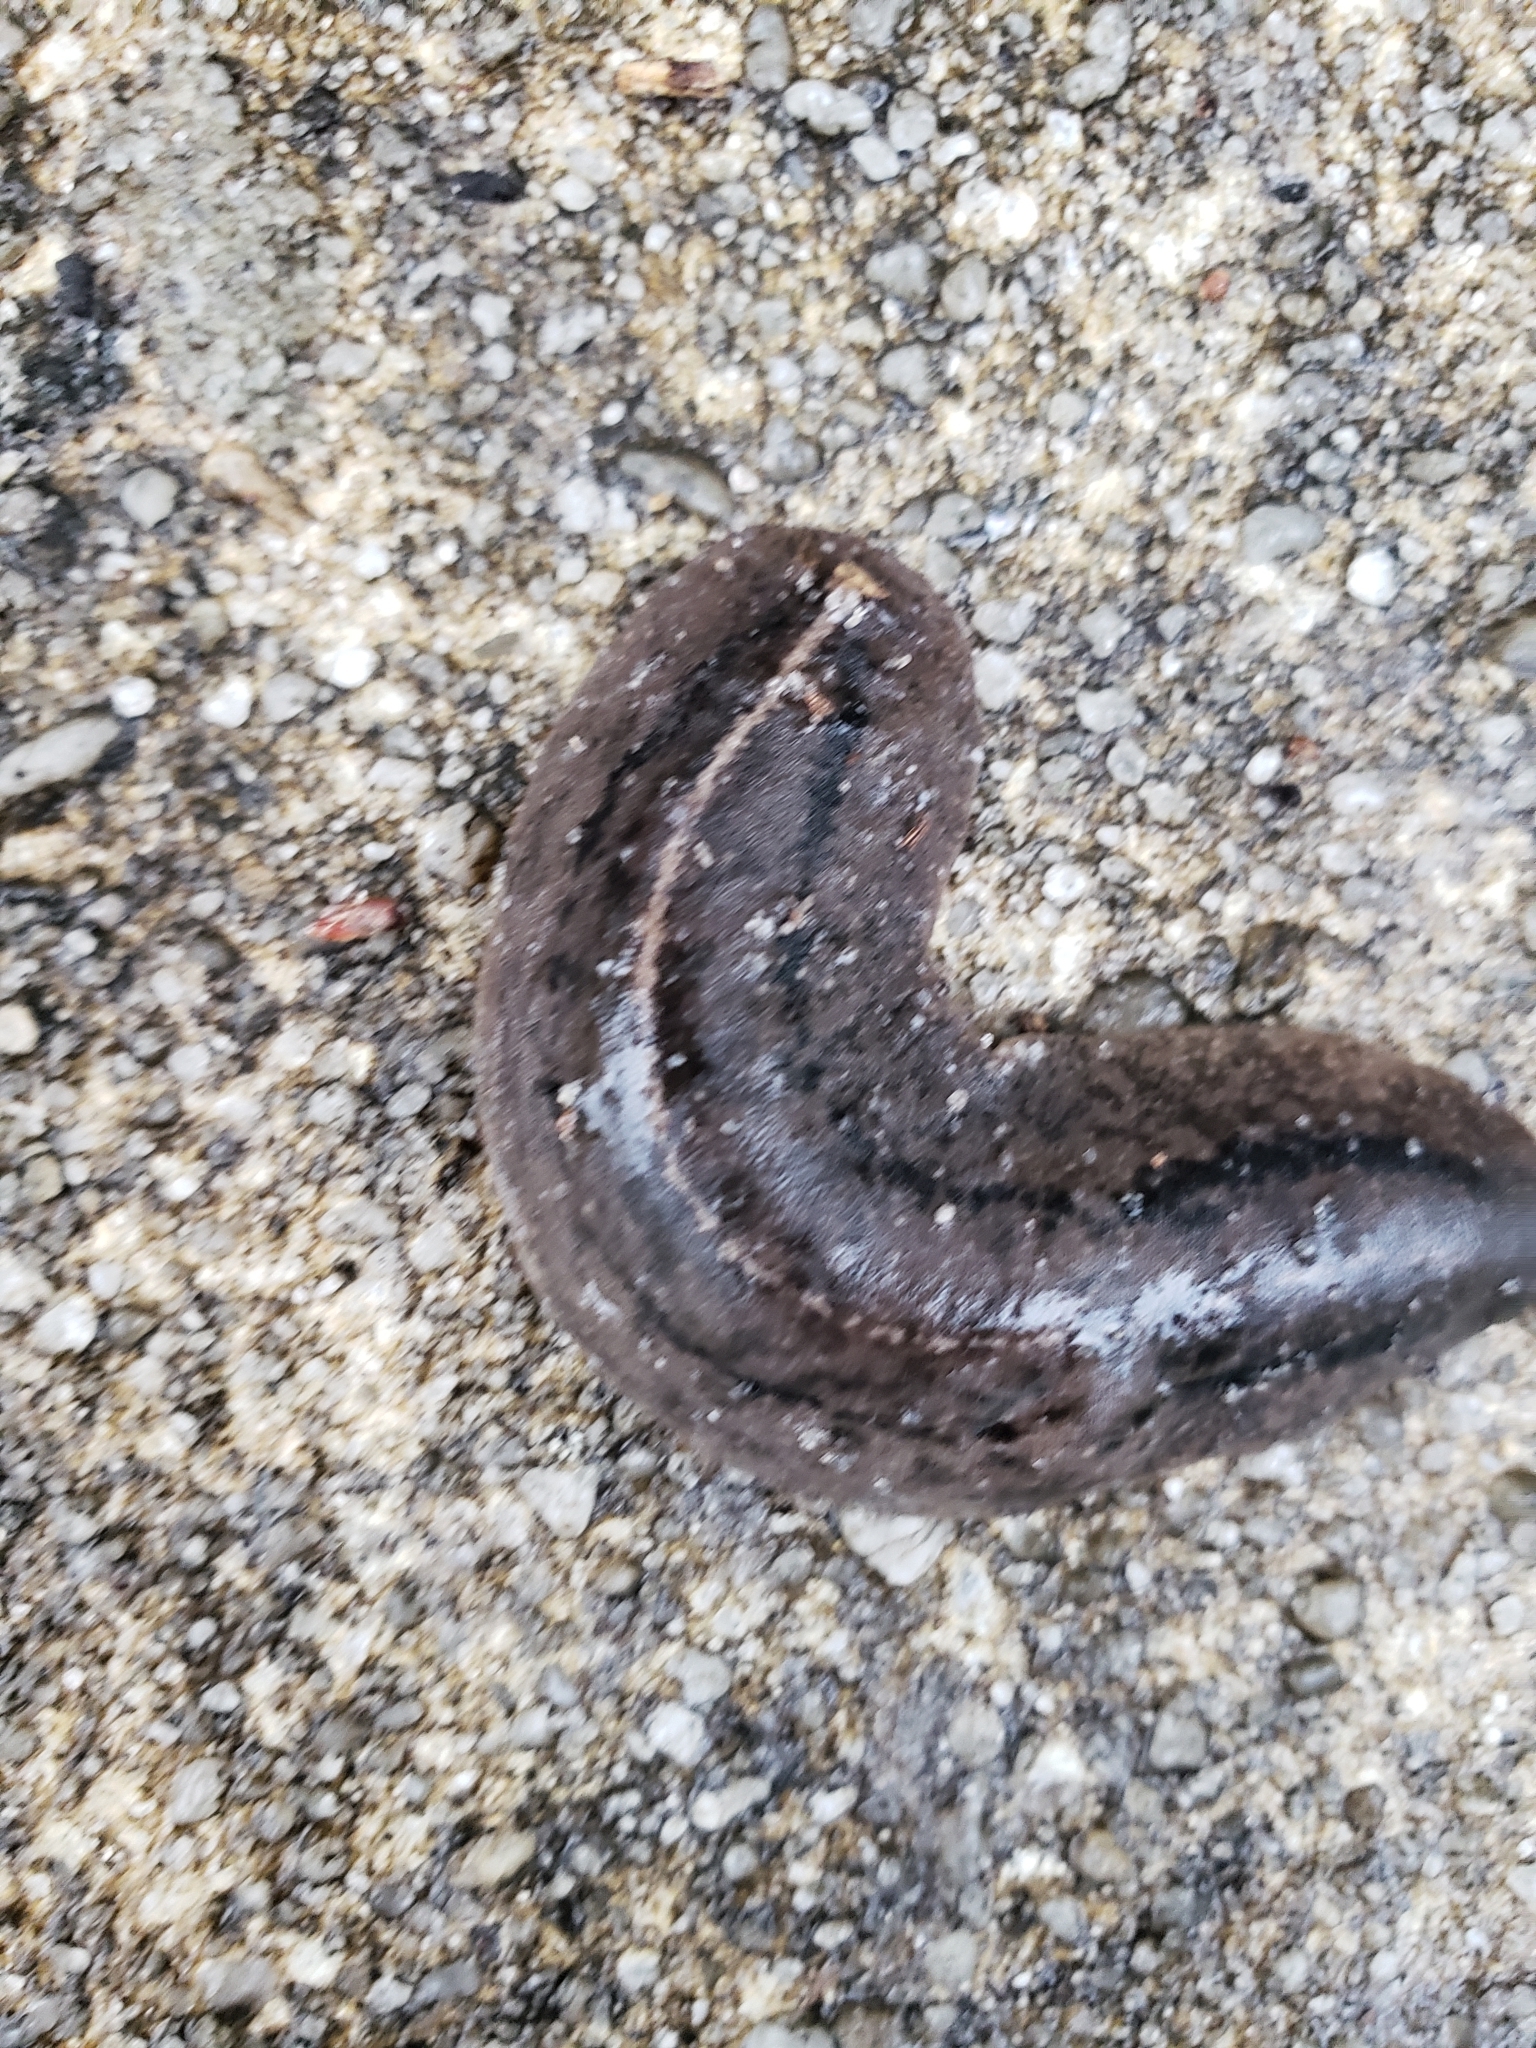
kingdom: Animalia
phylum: Mollusca
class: Gastropoda
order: Systellommatophora
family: Veronicellidae
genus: Leidyula
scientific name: Leidyula floridana
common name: Florida leatherleaf
